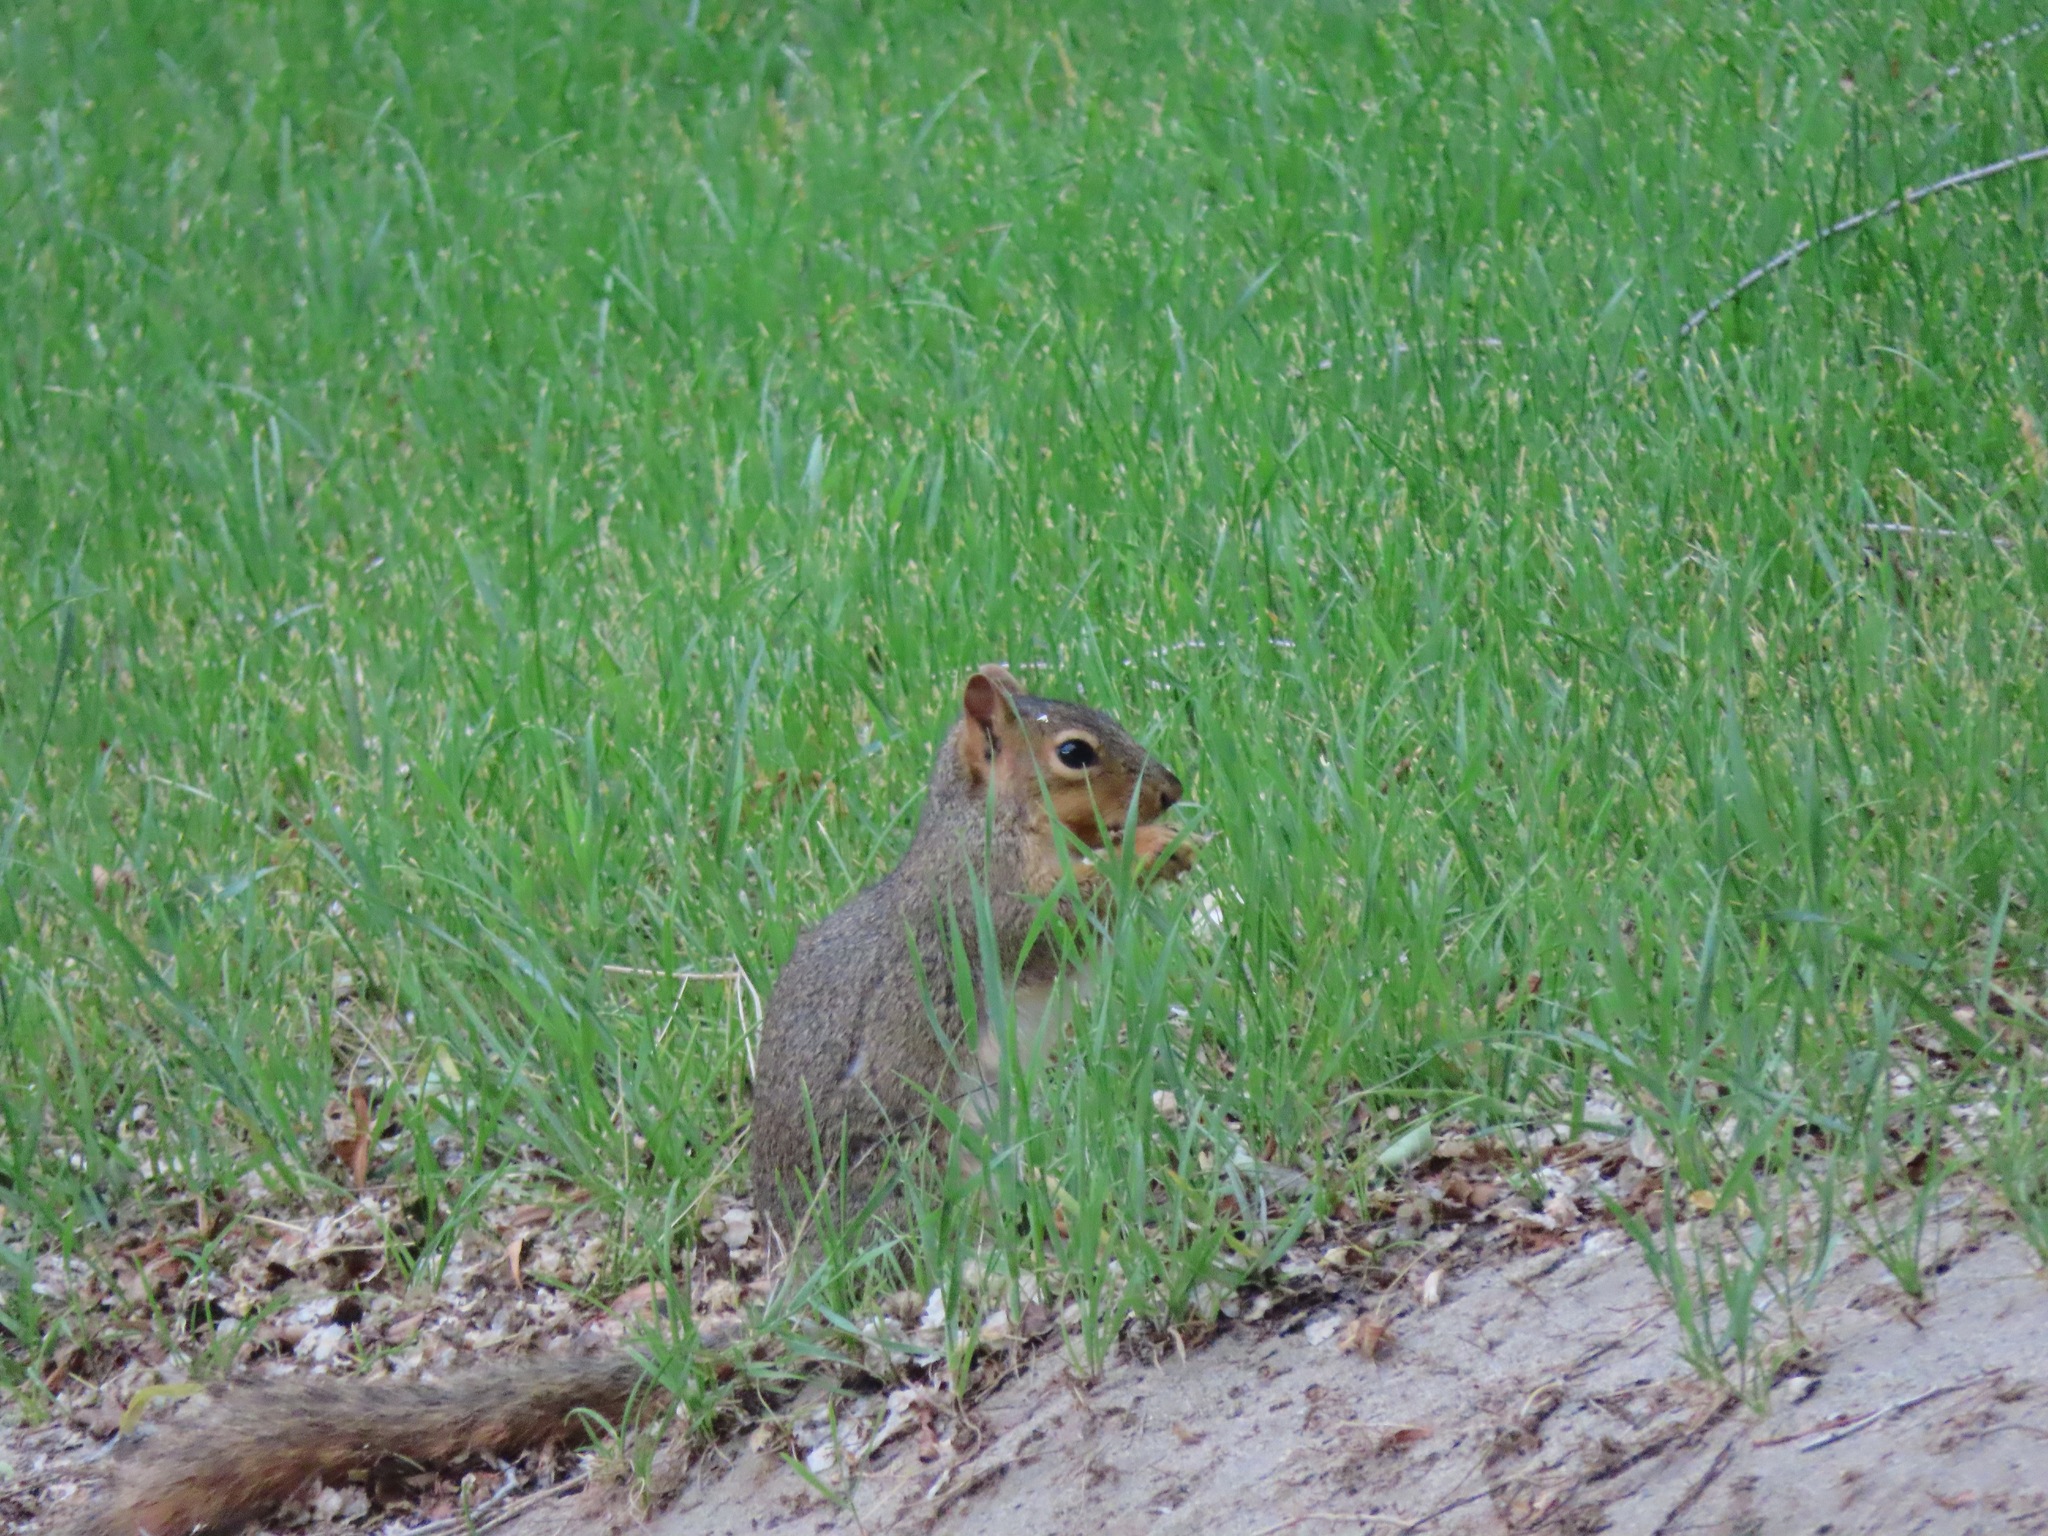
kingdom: Animalia
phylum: Chordata
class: Mammalia
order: Rodentia
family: Sciuridae
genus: Sciurus
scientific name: Sciurus niger
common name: Fox squirrel
